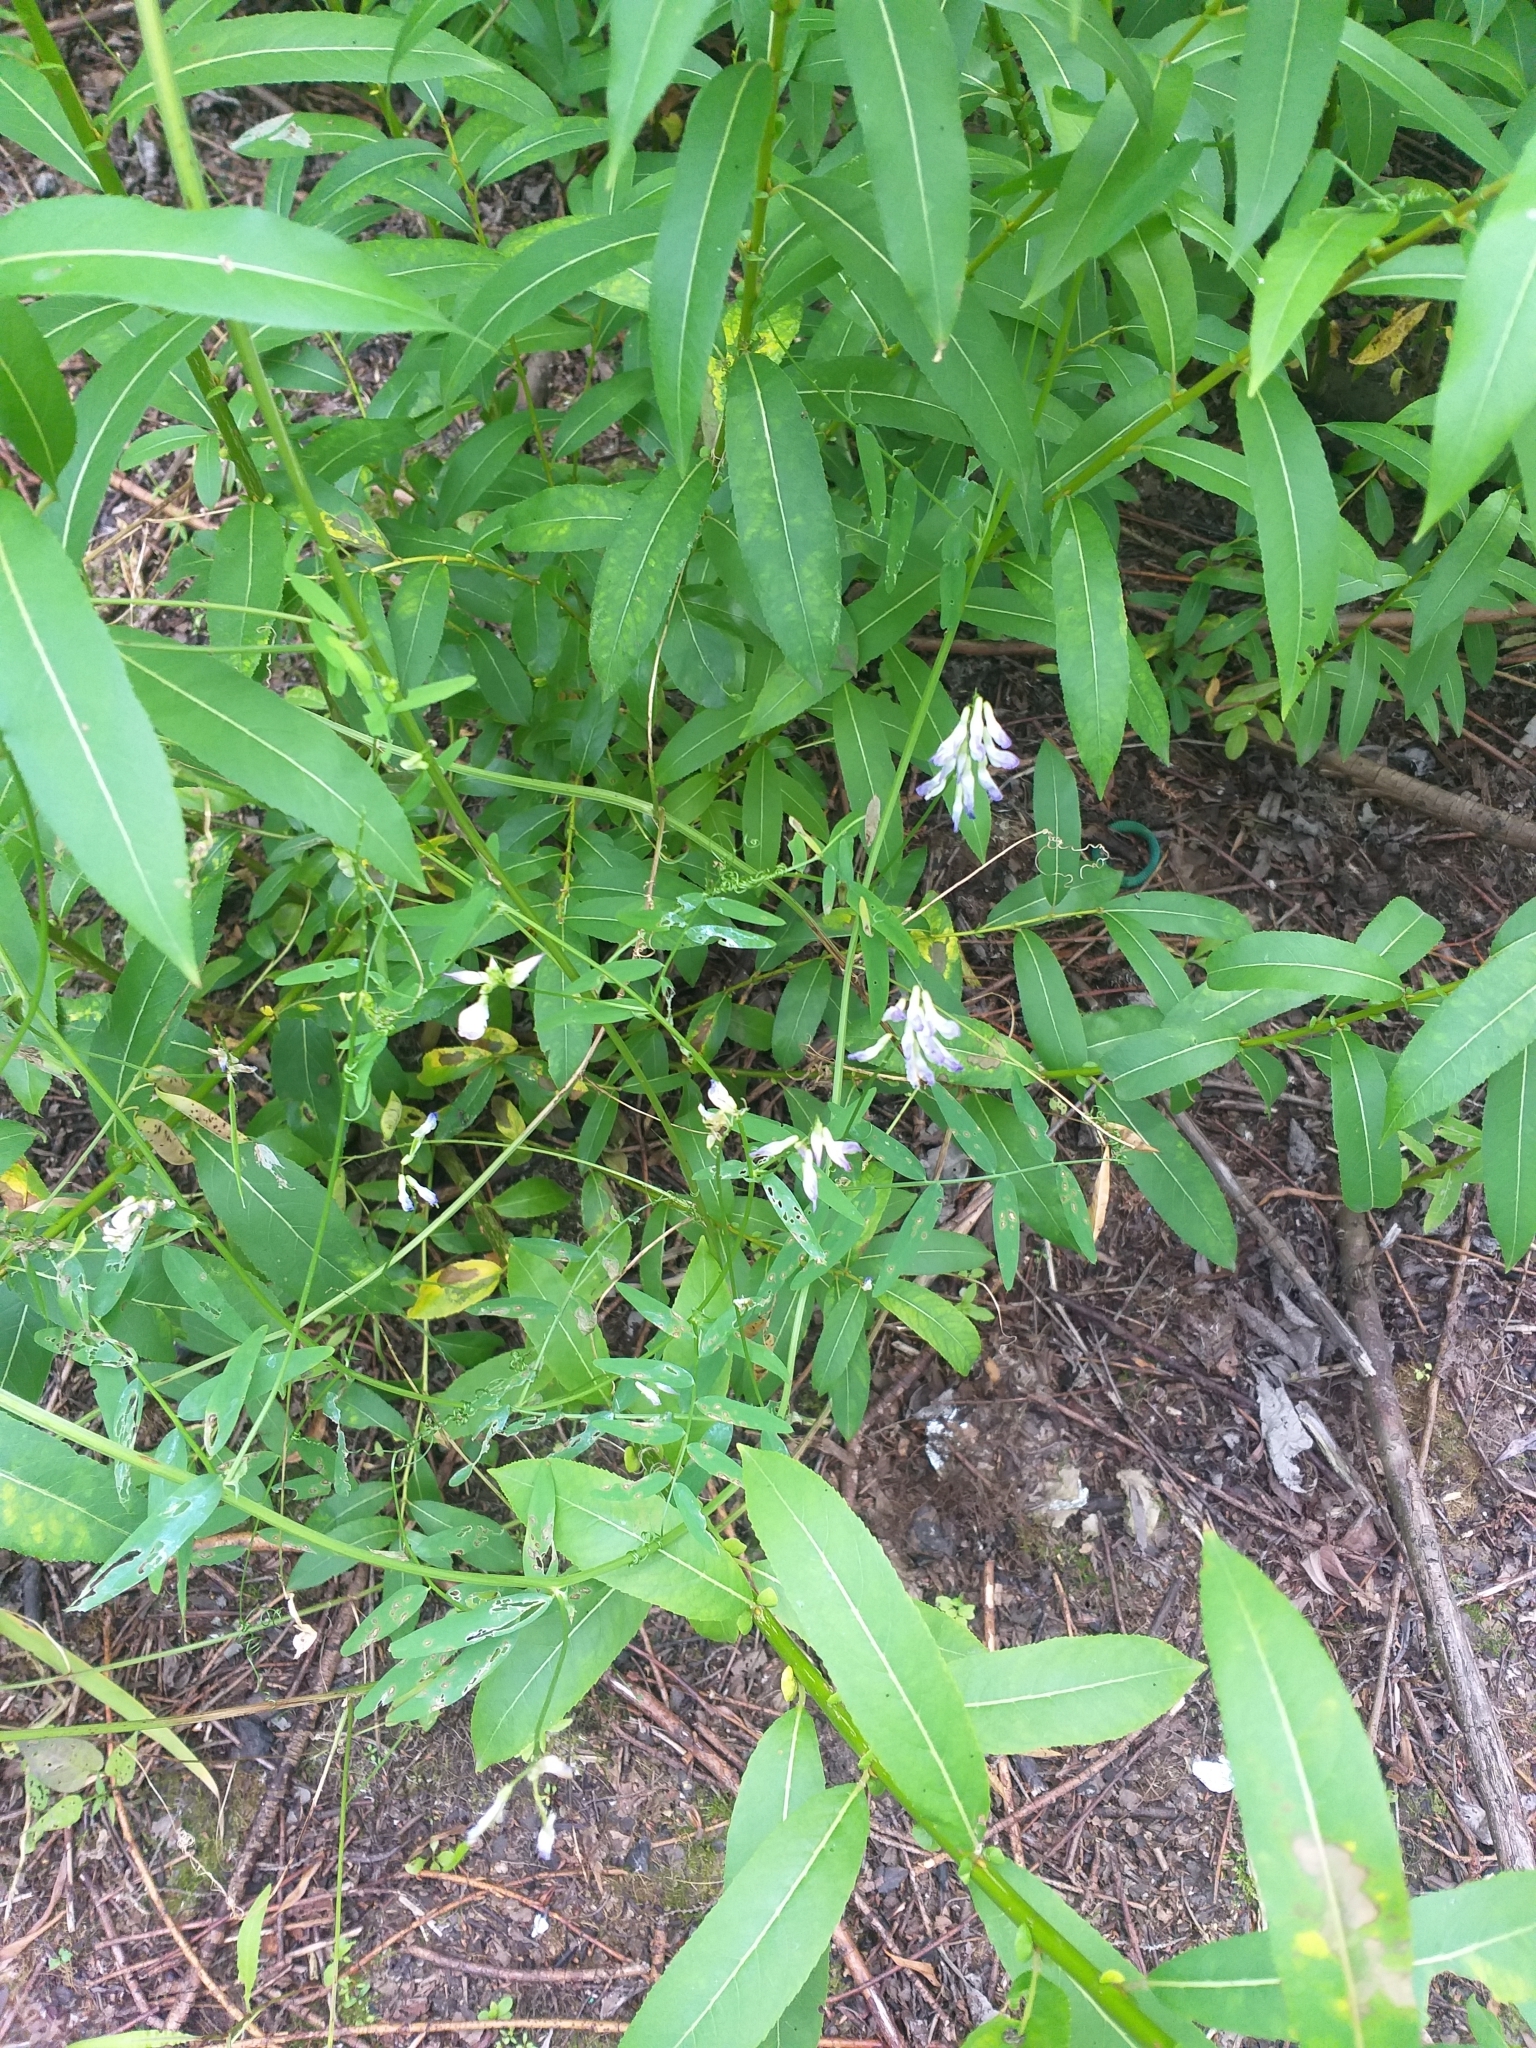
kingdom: Plantae
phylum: Tracheophyta
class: Magnoliopsida
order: Fabales
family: Fabaceae
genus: Vicia
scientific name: Vicia biennis
